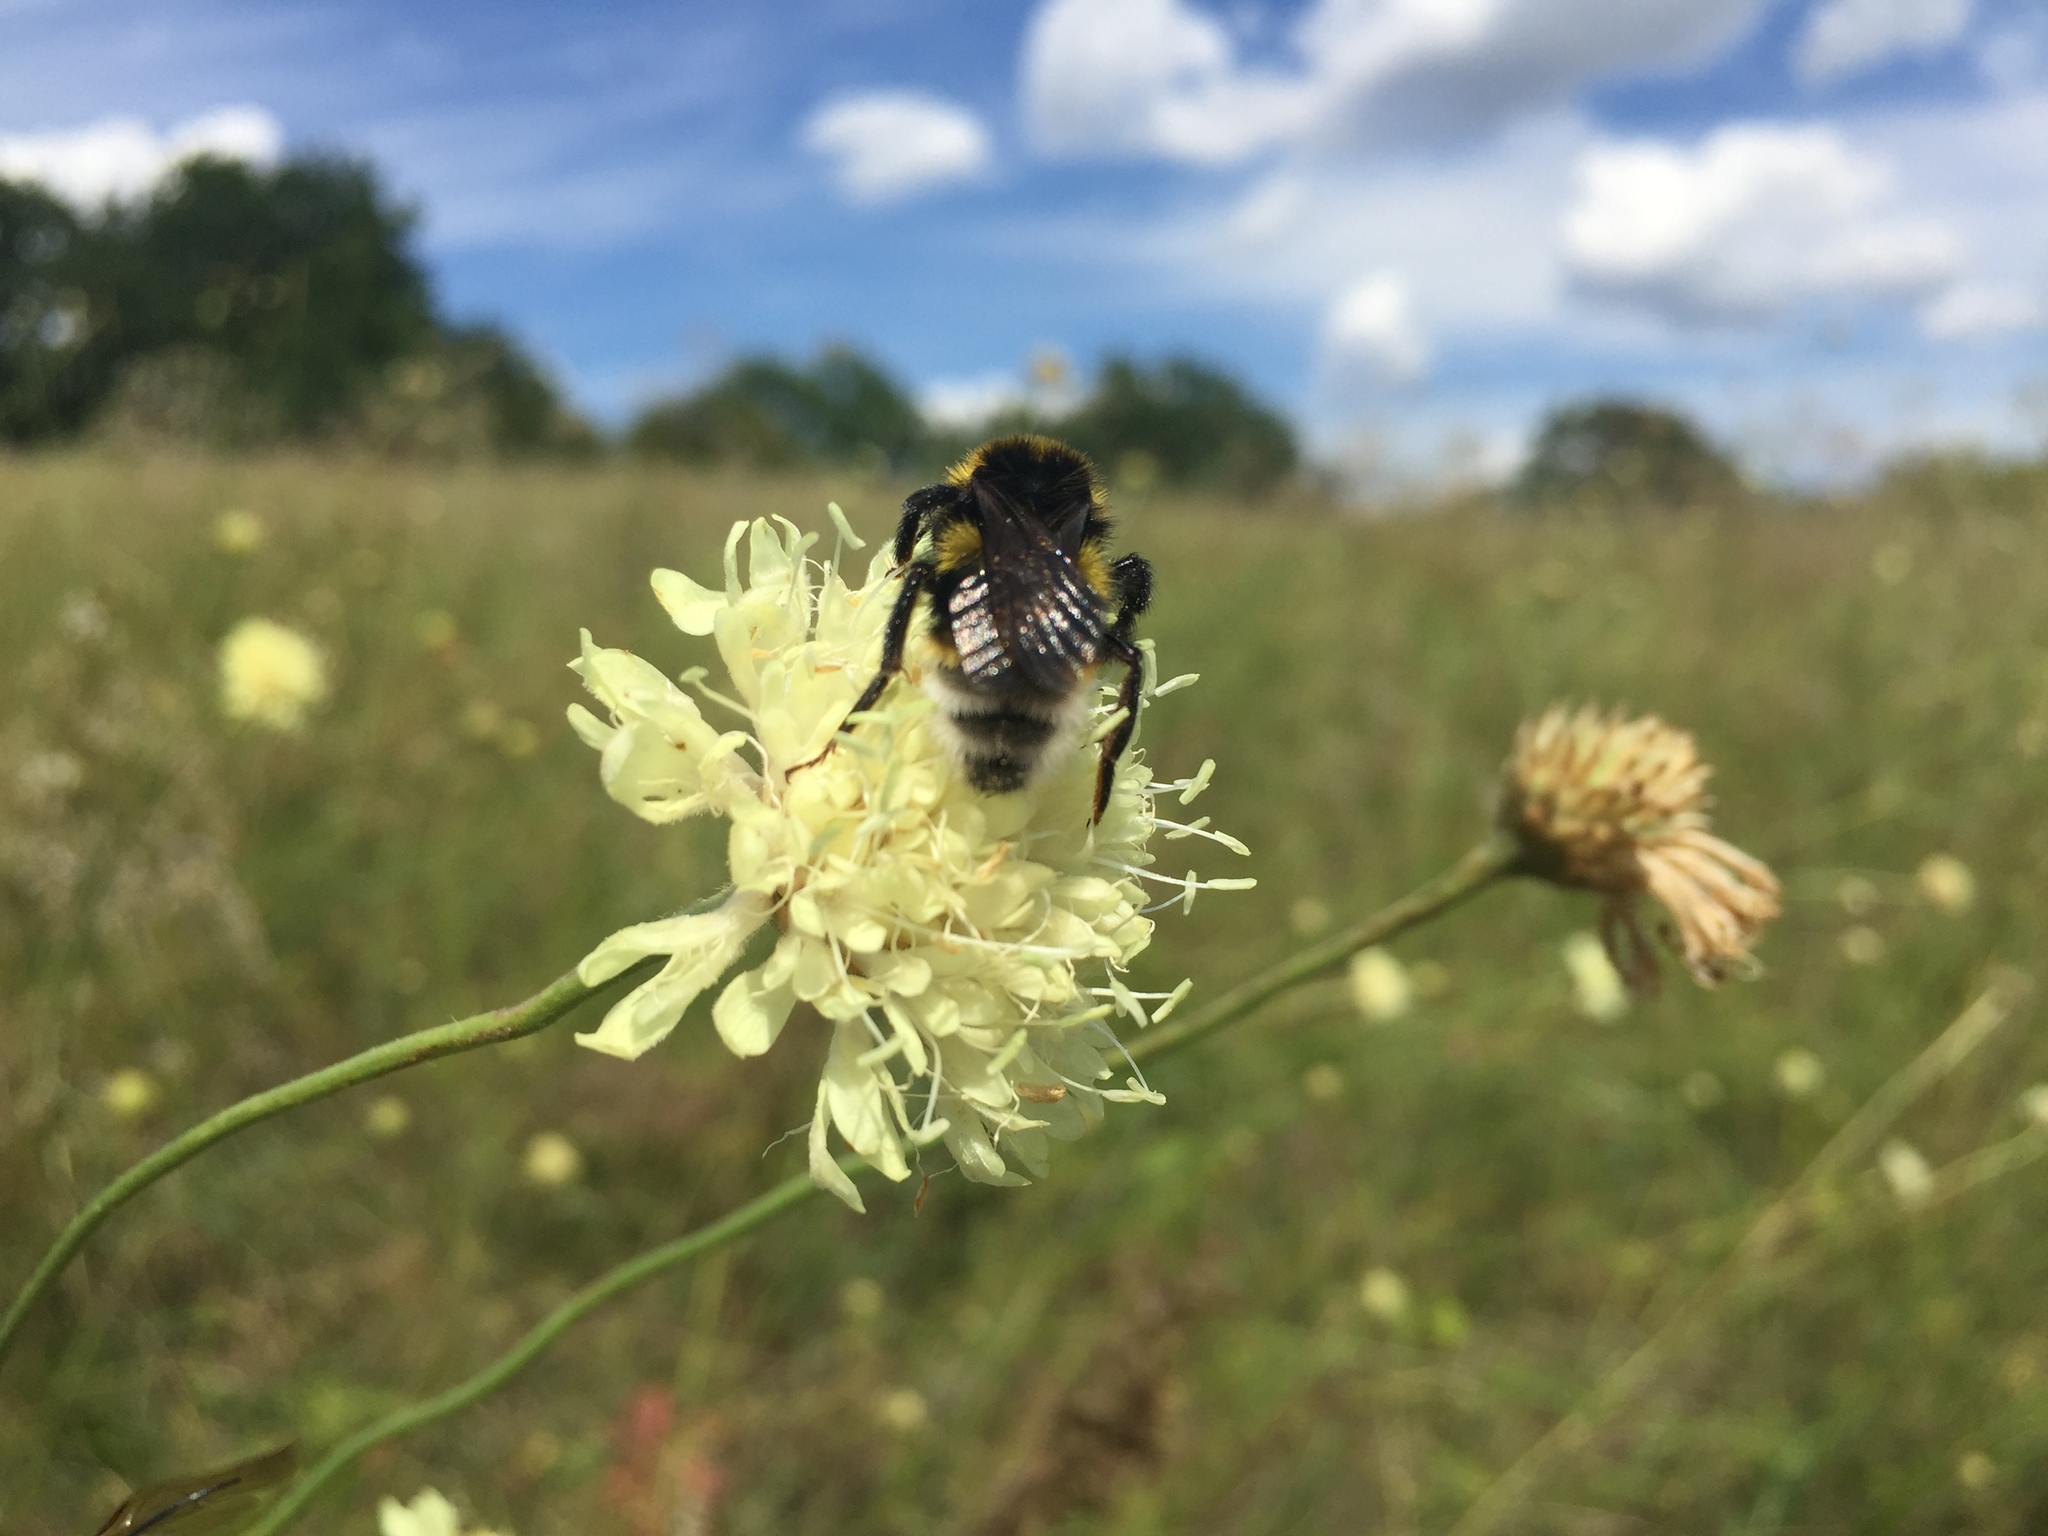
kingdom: Animalia
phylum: Arthropoda
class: Insecta
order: Hymenoptera
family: Apidae
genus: Bombus
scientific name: Bombus vestalis
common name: Vestal cuckoo bee
